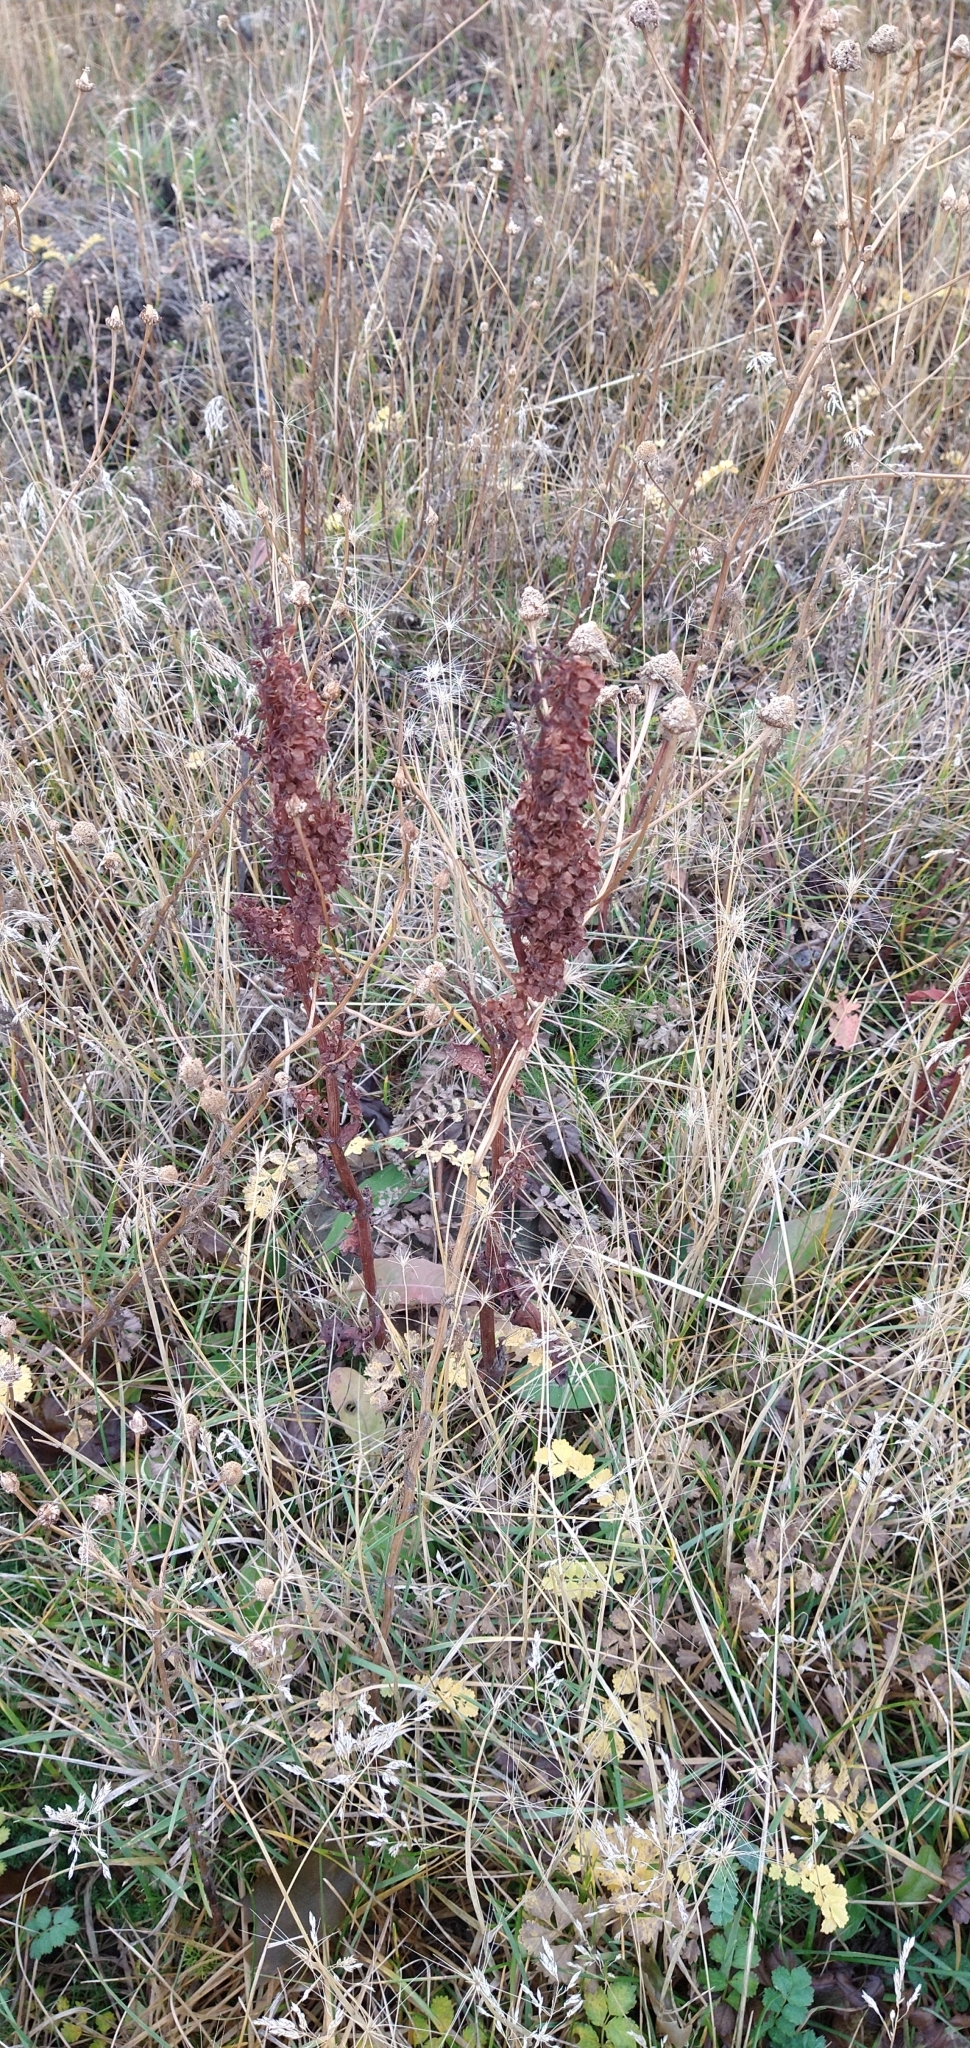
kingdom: Plantae
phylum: Tracheophyta
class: Magnoliopsida
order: Caryophyllales
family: Polygonaceae
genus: Rumex
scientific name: Rumex crispus
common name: Curled dock
